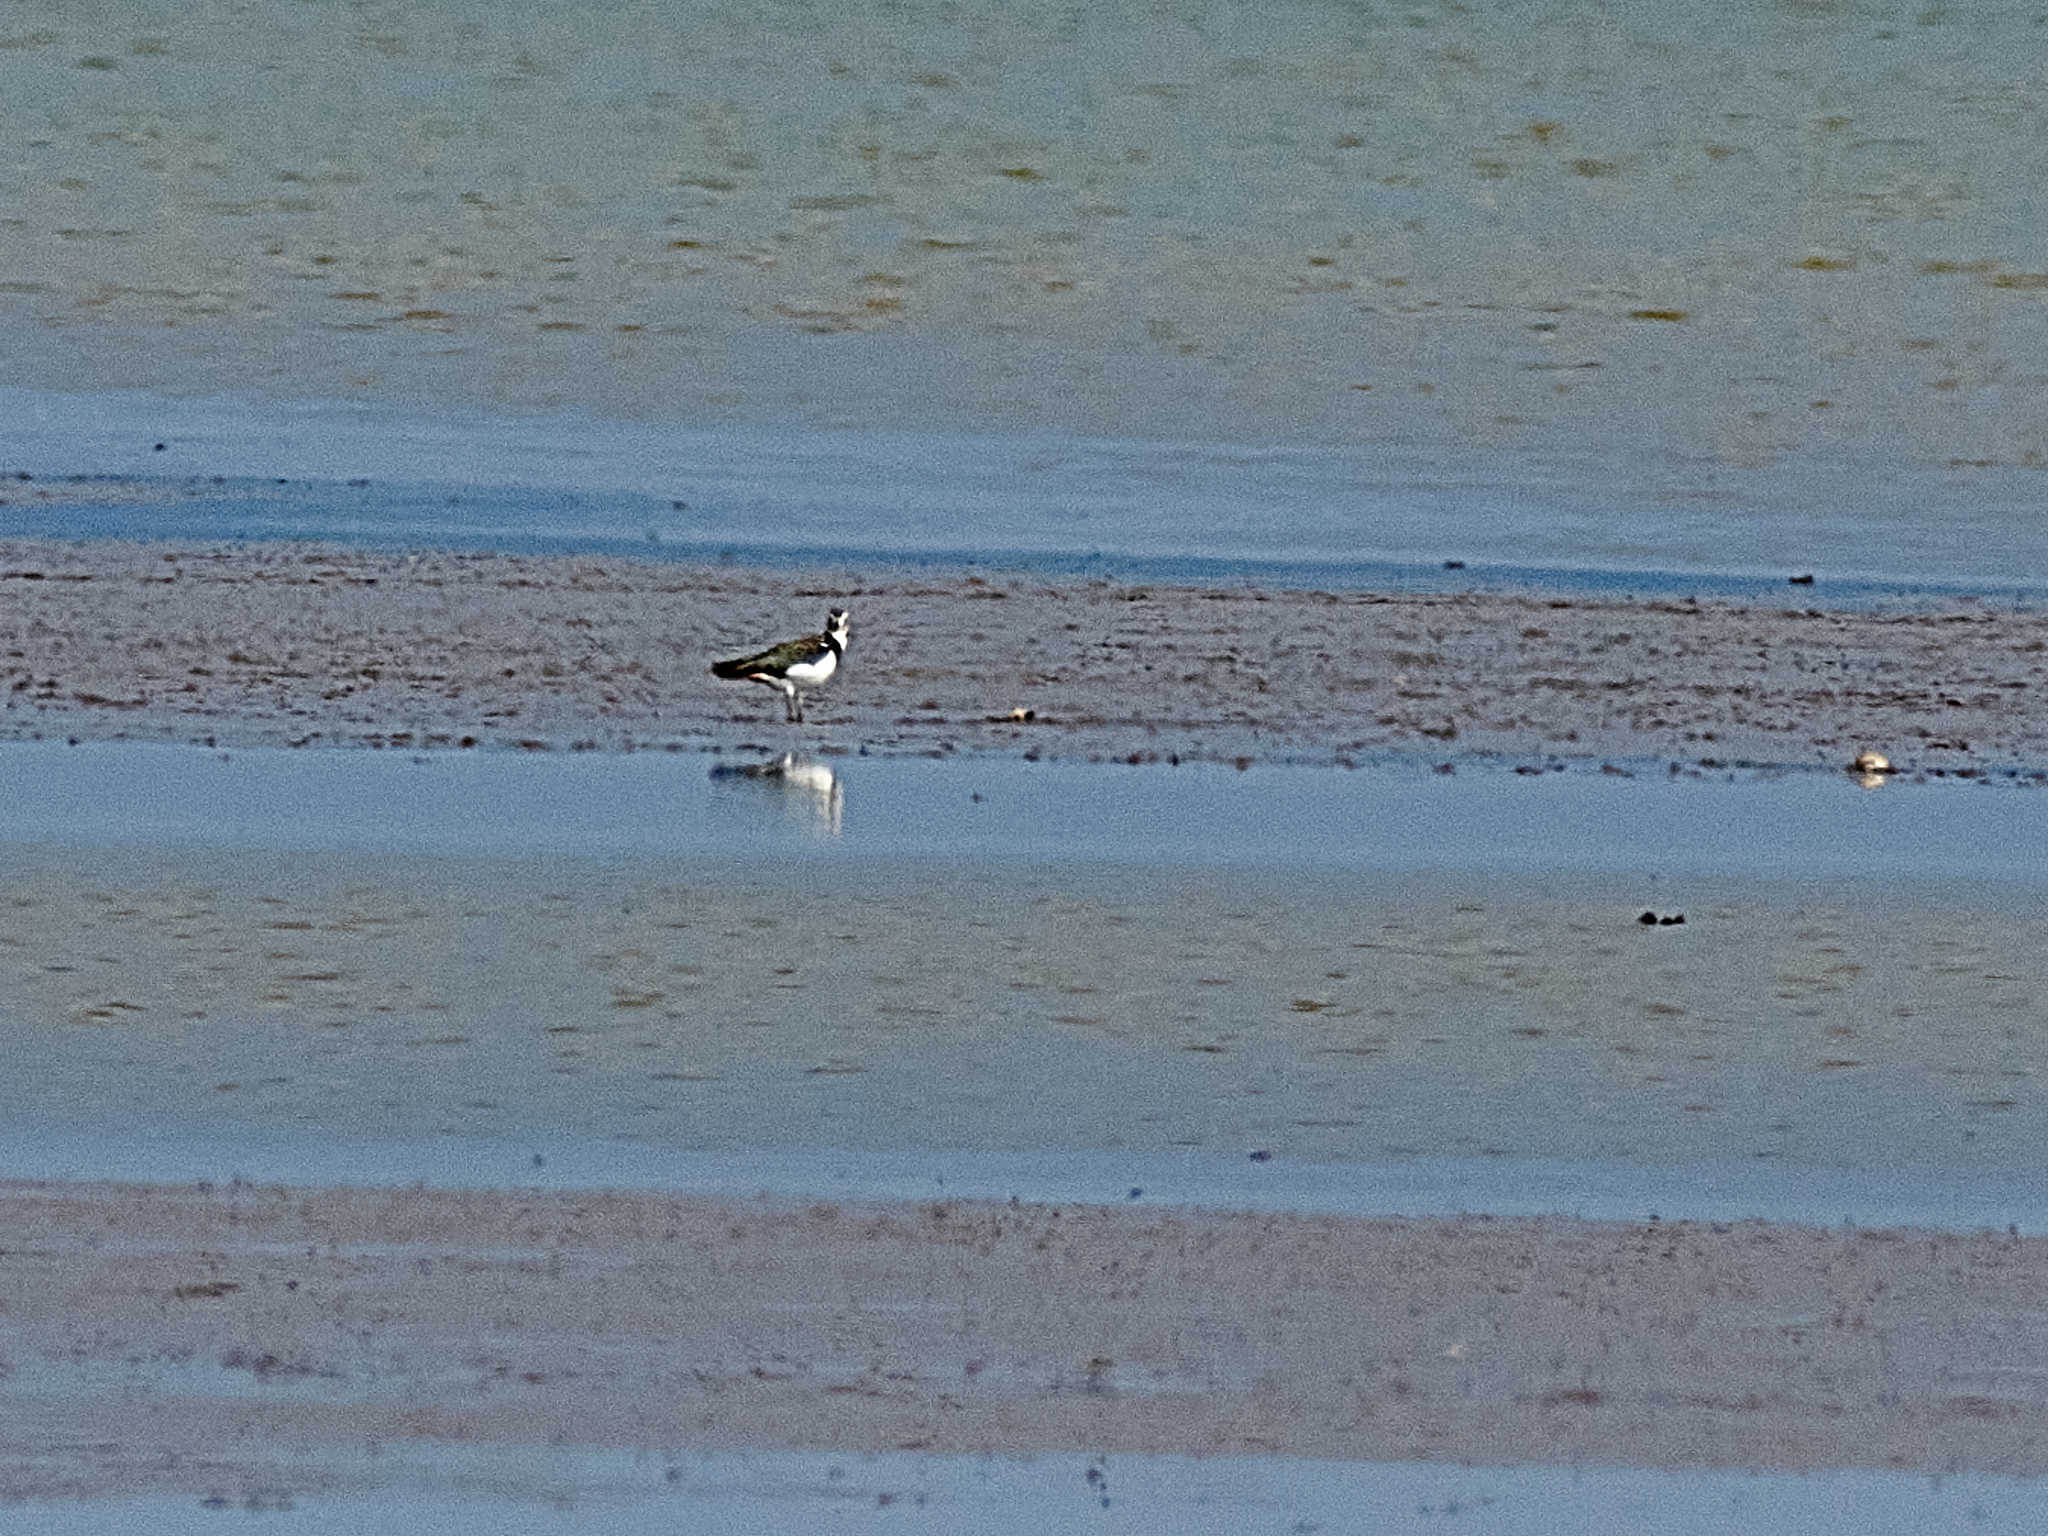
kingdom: Animalia
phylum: Chordata
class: Aves
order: Charadriiformes
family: Charadriidae
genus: Vanellus
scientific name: Vanellus vanellus
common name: Northern lapwing
